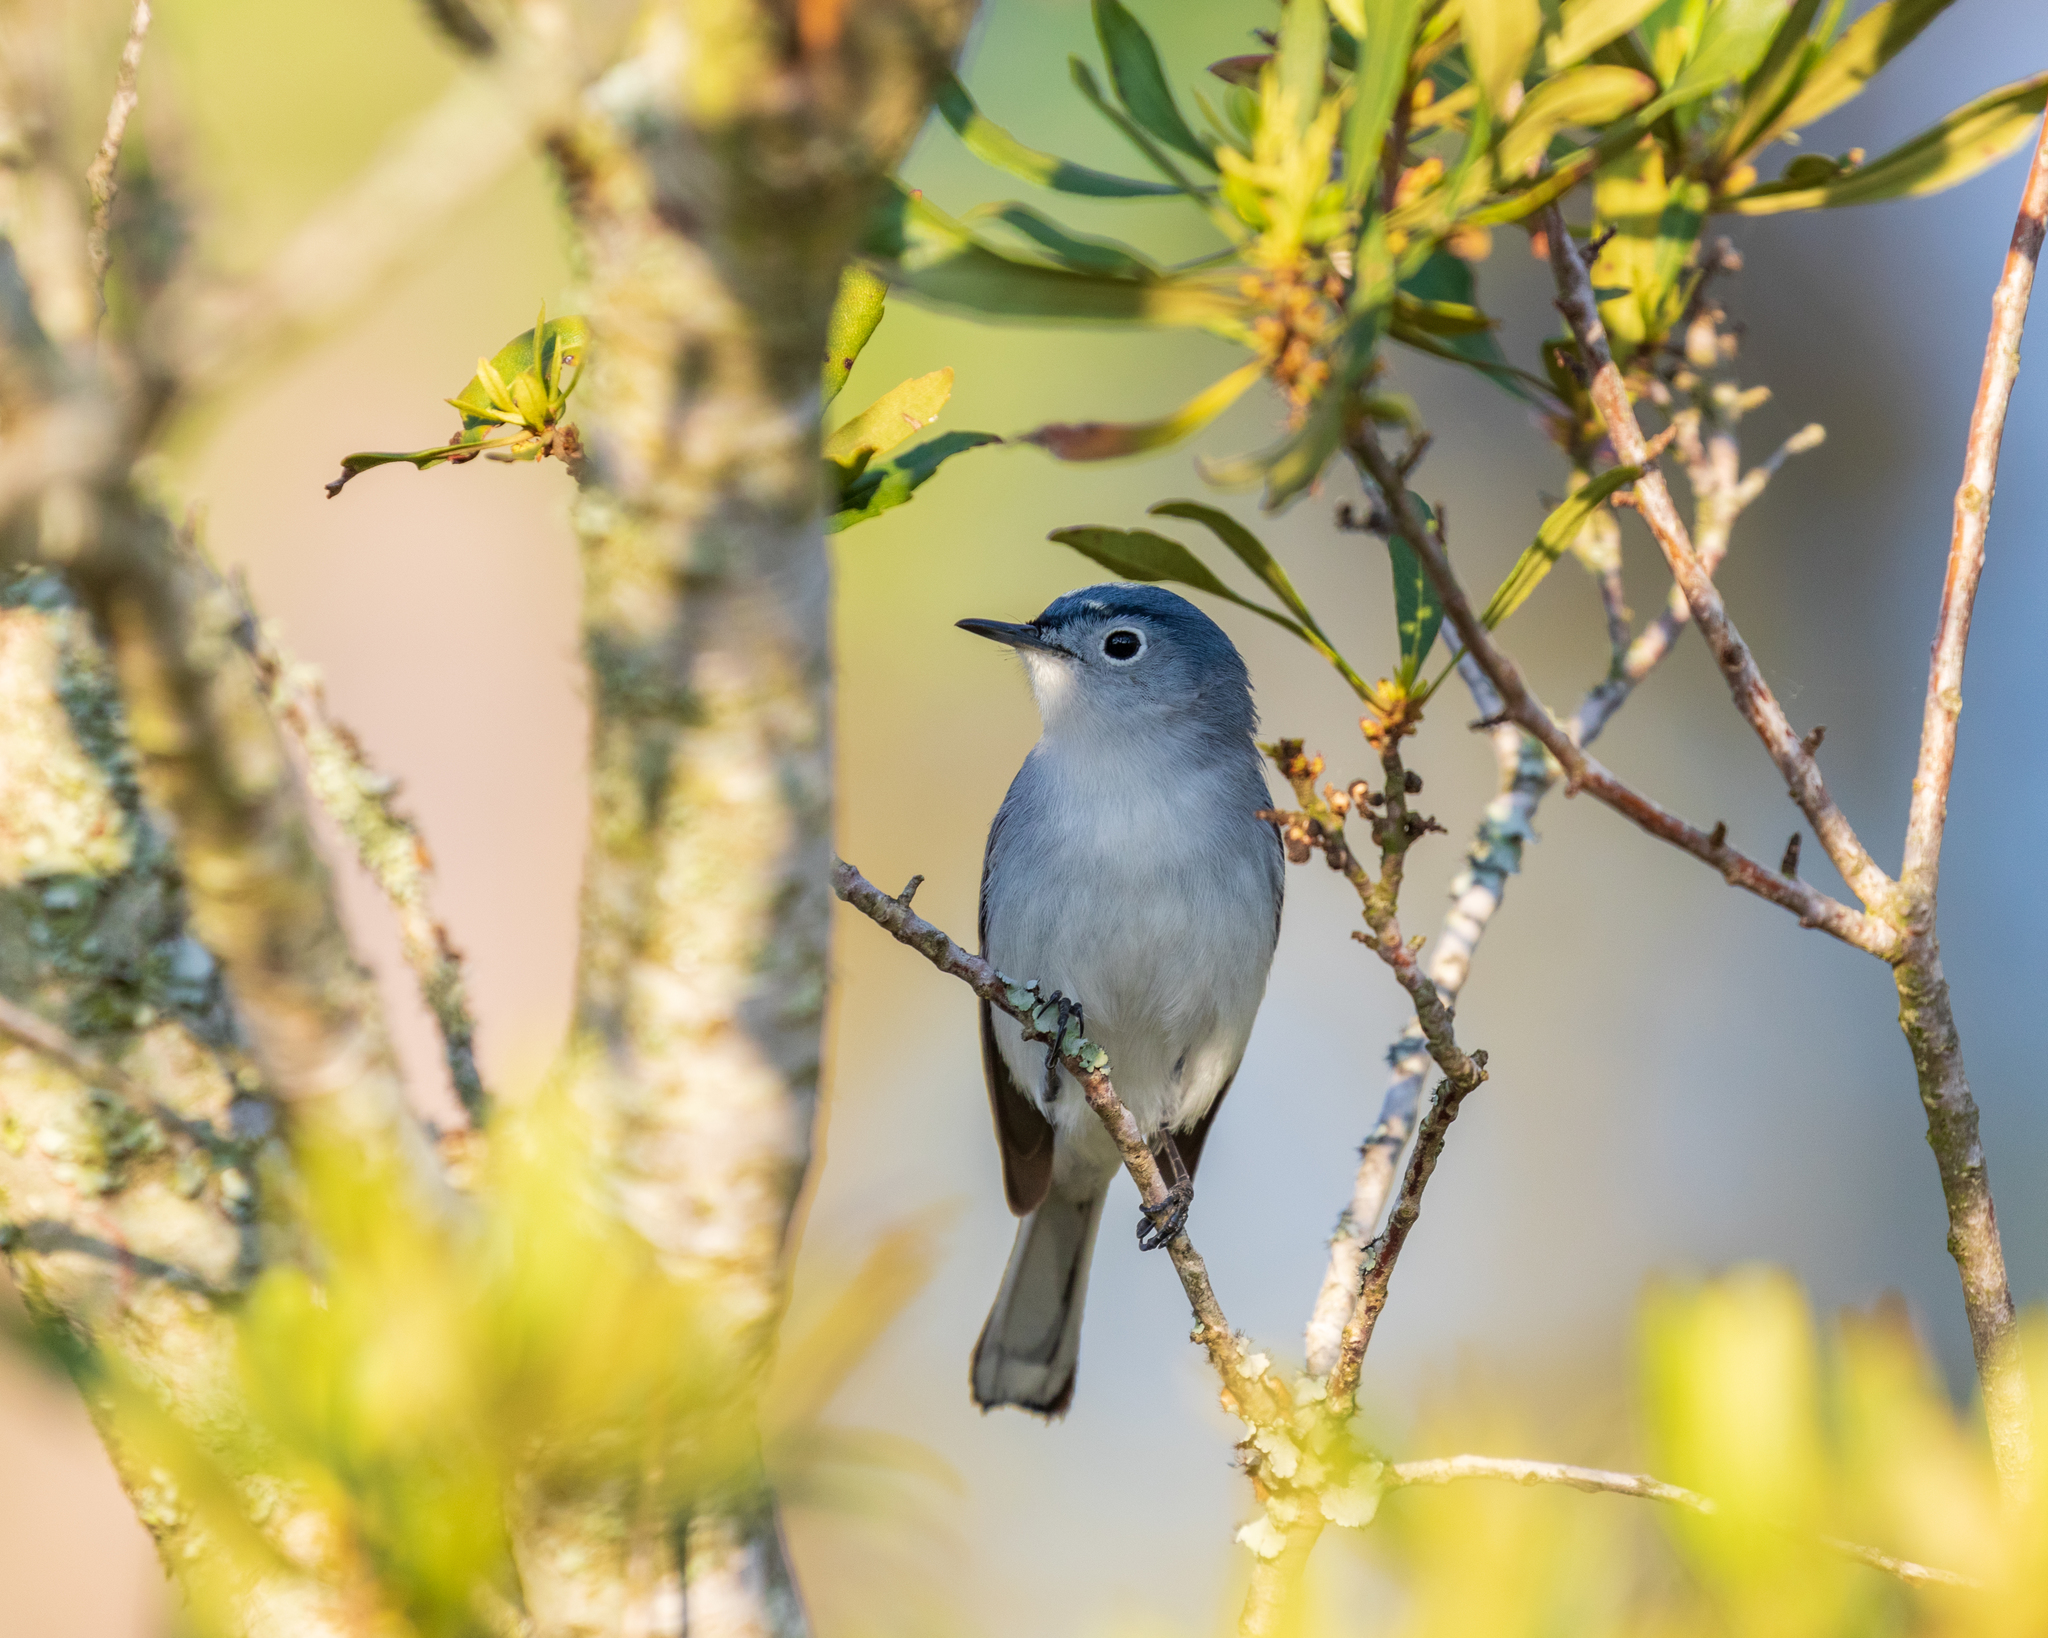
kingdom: Animalia
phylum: Chordata
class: Aves
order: Passeriformes
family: Polioptilidae
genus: Polioptila
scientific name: Polioptila caerulea
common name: Blue-gray gnatcatcher
